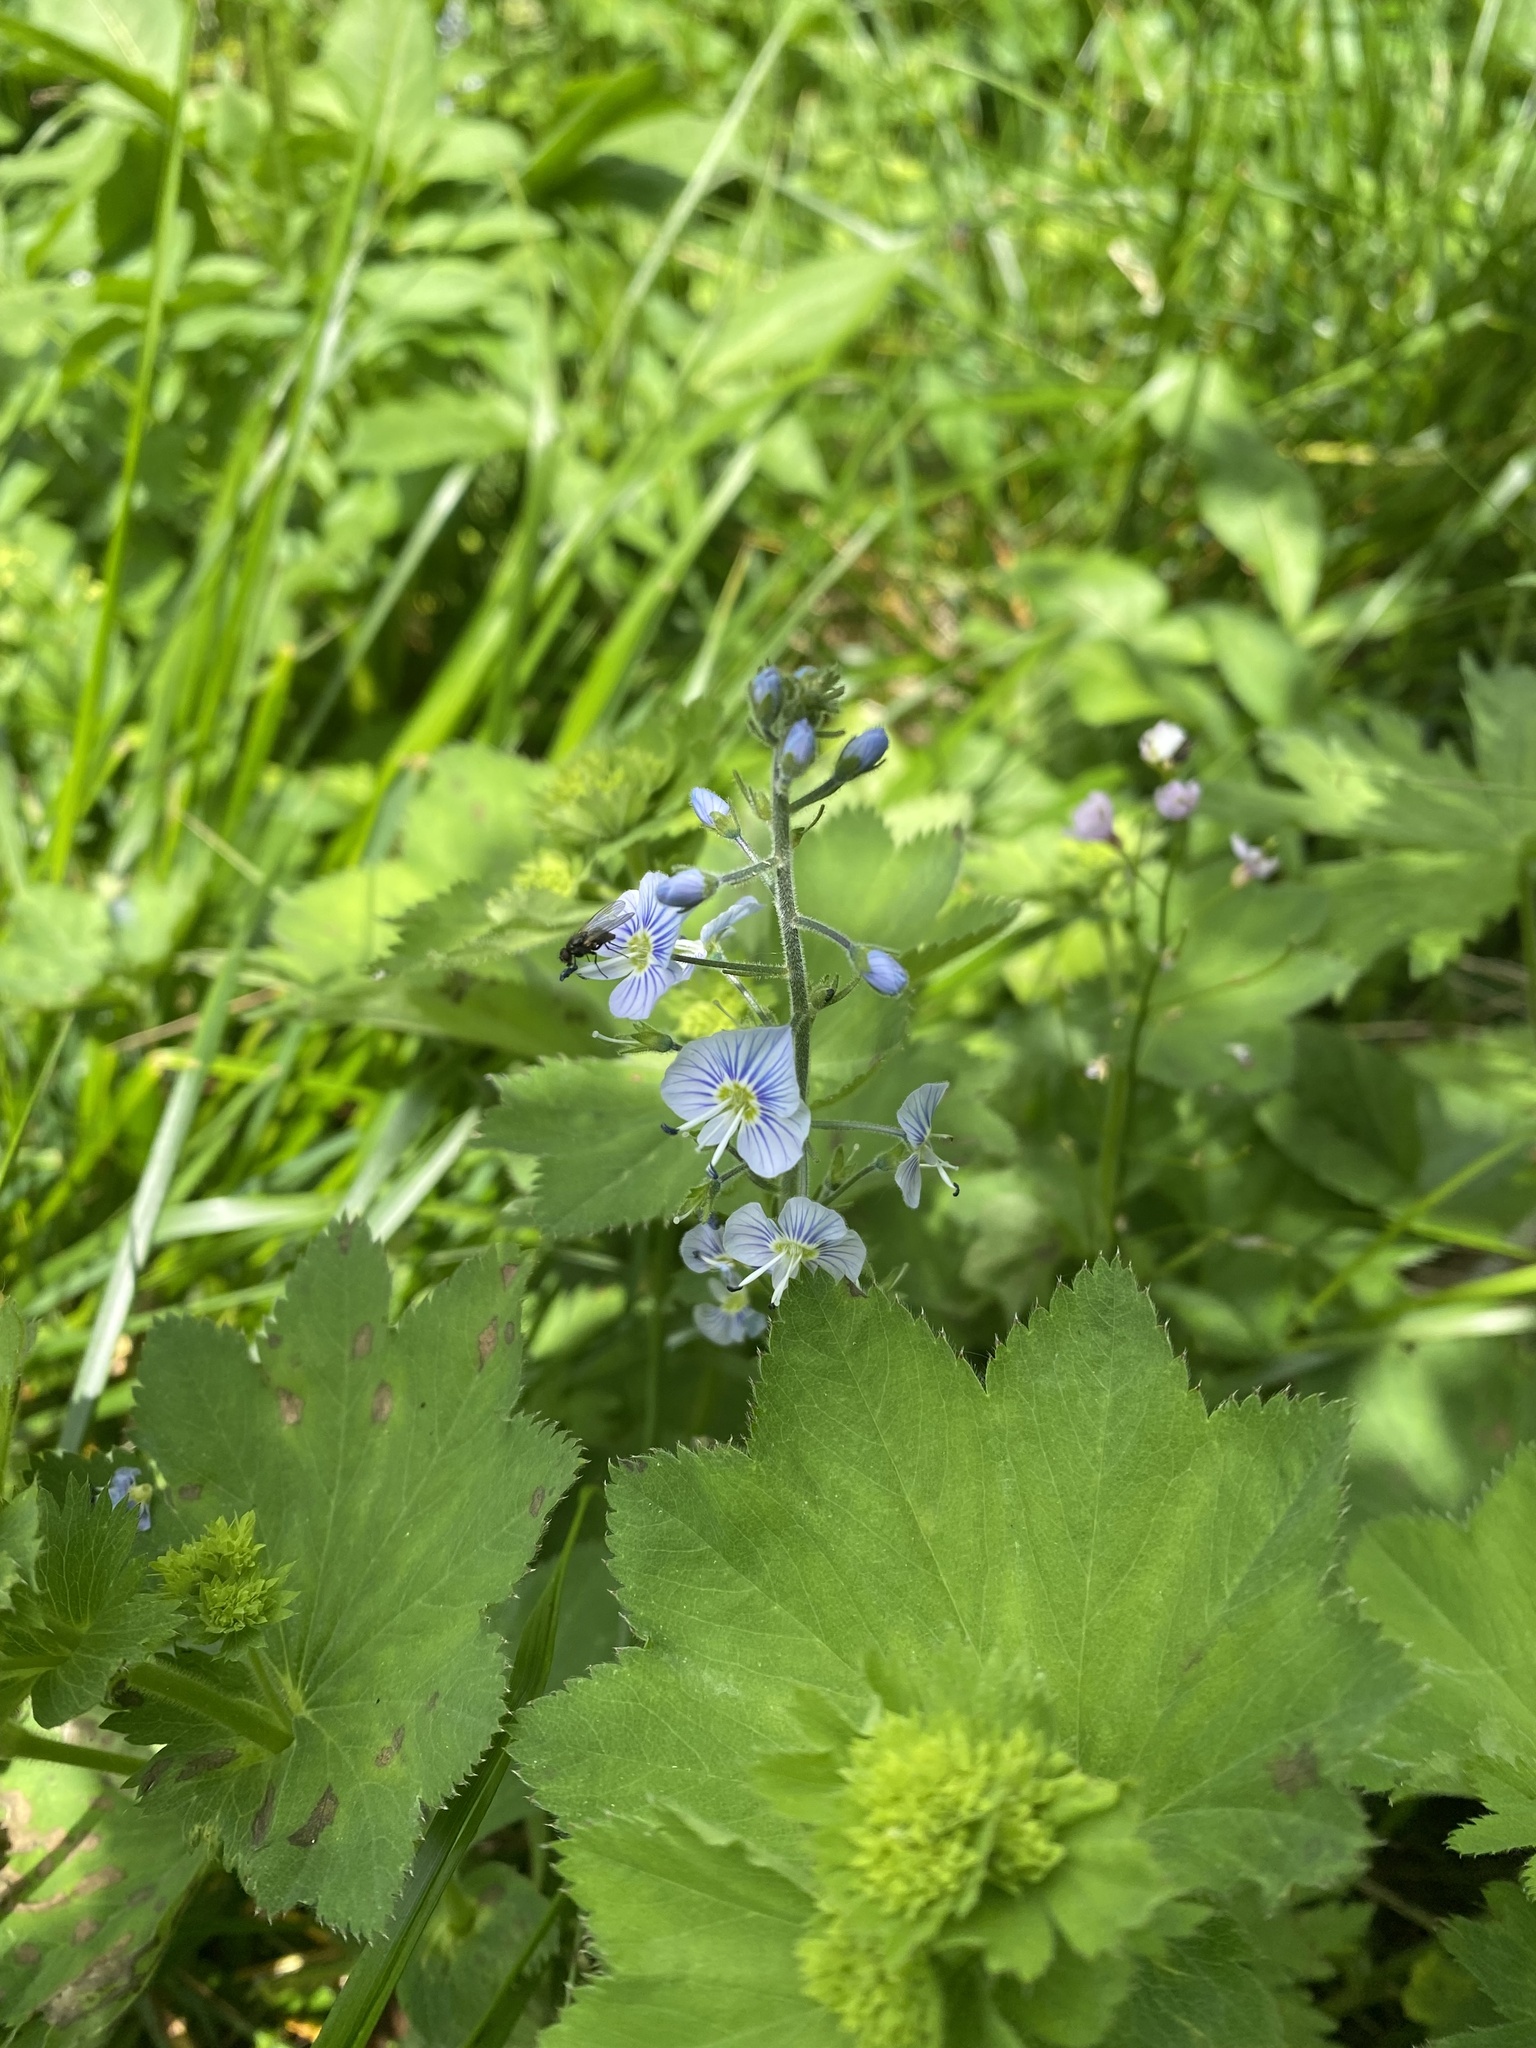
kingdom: Plantae
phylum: Tracheophyta
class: Magnoliopsida
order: Lamiales
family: Plantaginaceae
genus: Veronica
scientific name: Veronica gentianoides
